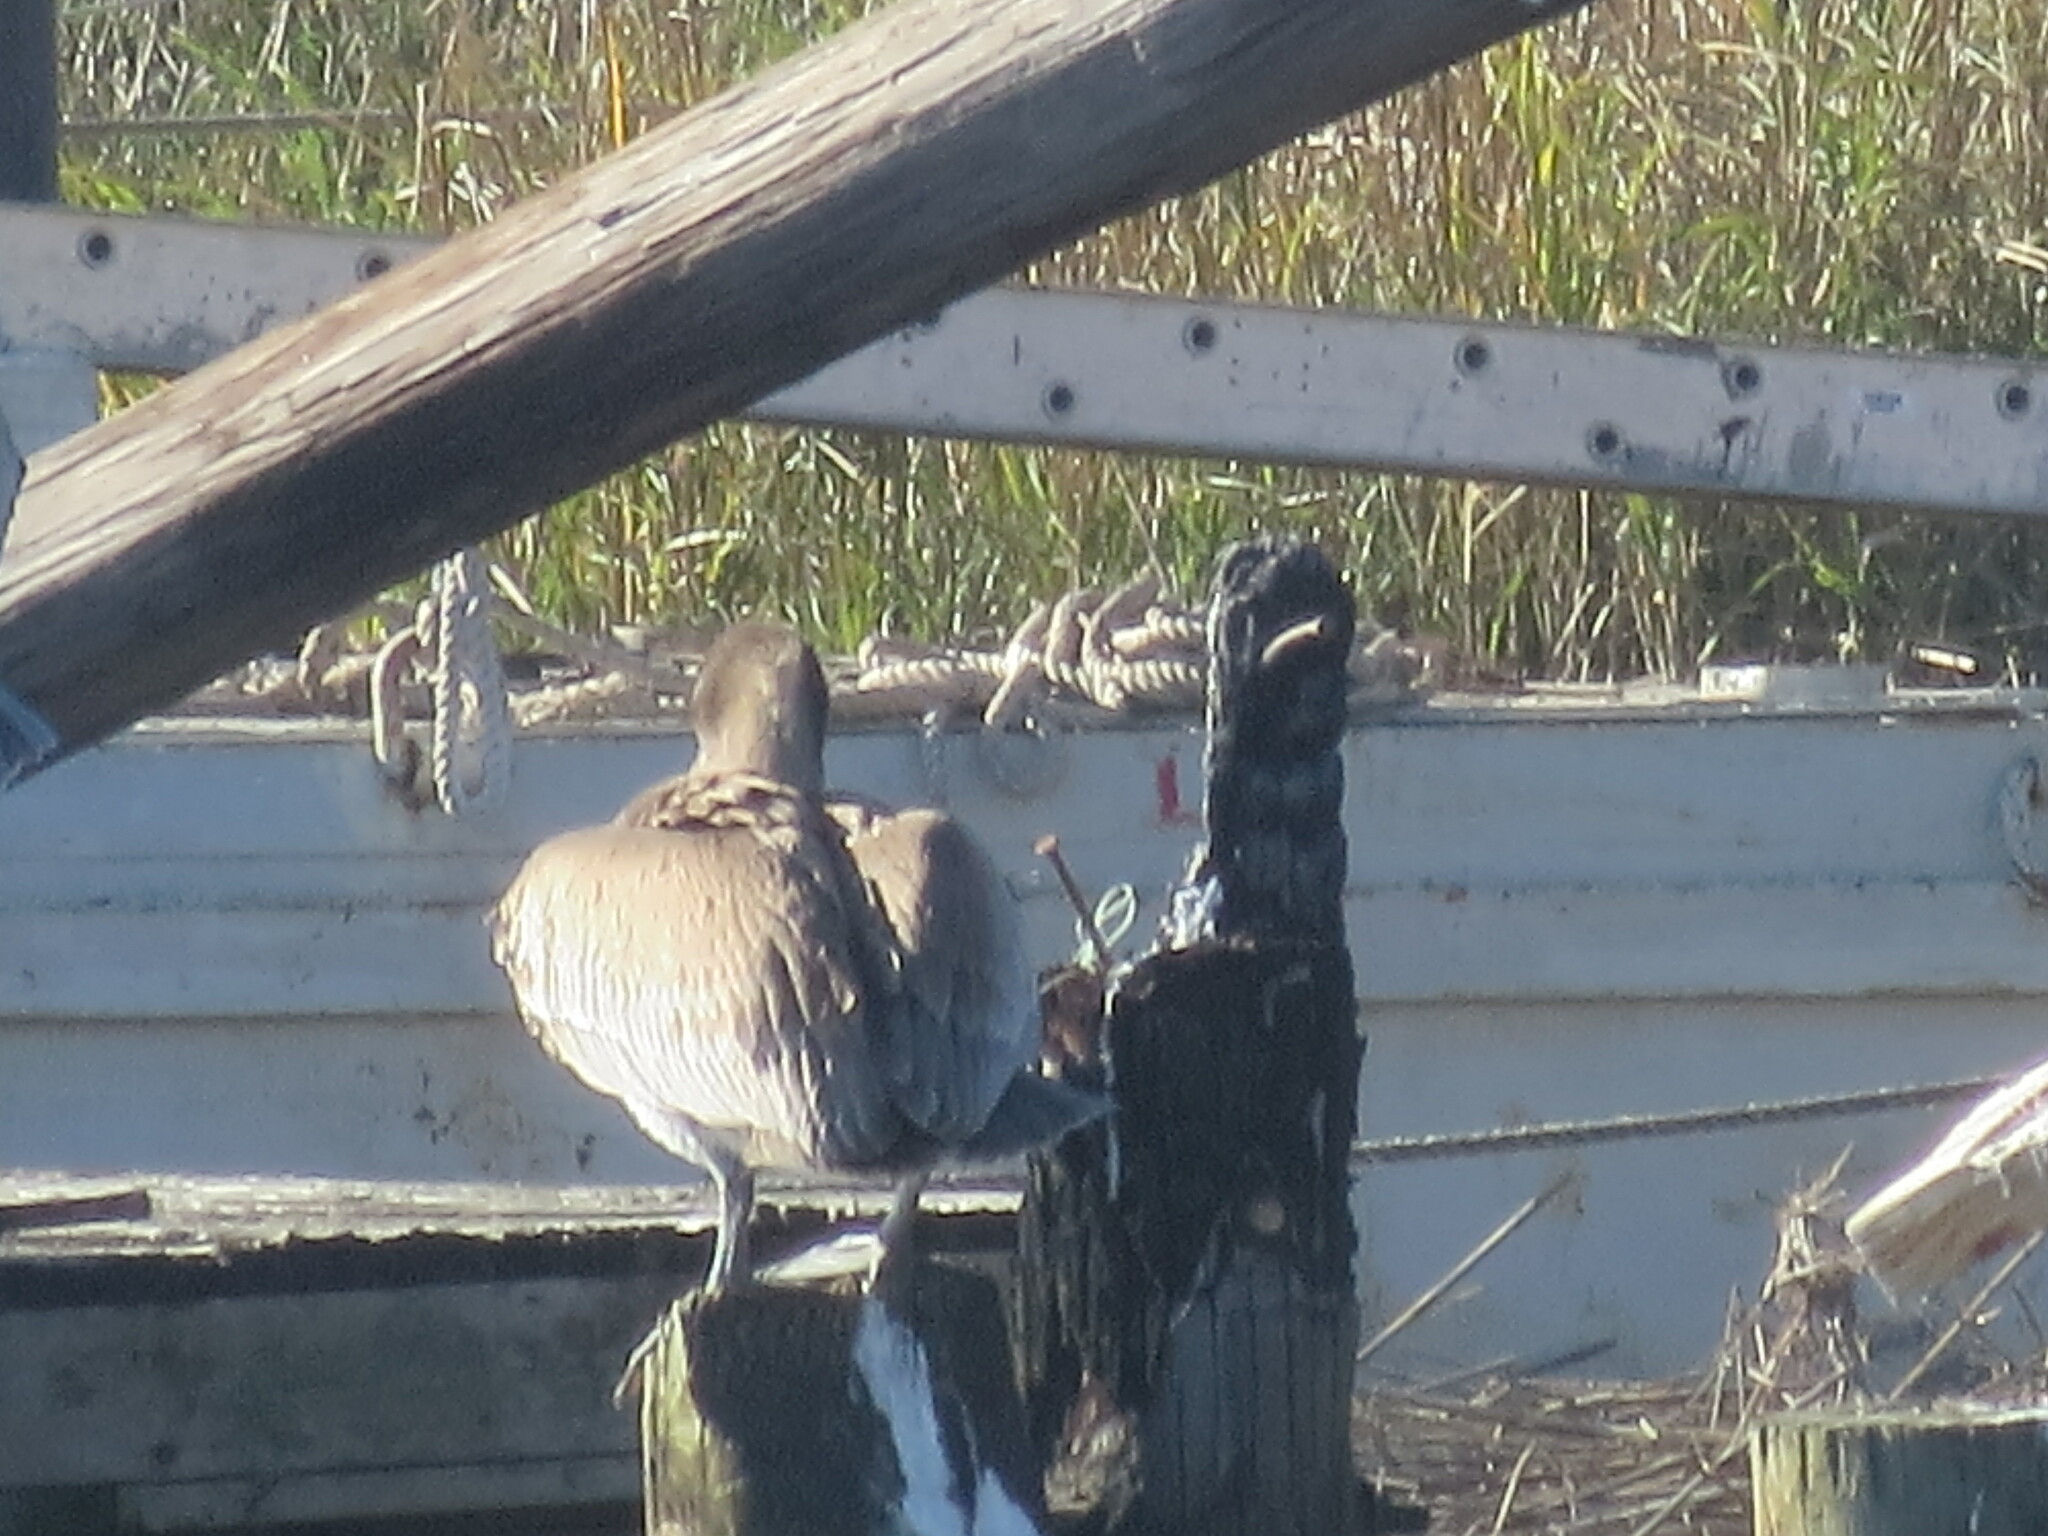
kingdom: Animalia
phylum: Chordata
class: Aves
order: Pelecaniformes
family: Pelecanidae
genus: Pelecanus
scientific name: Pelecanus occidentalis
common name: Brown pelican
